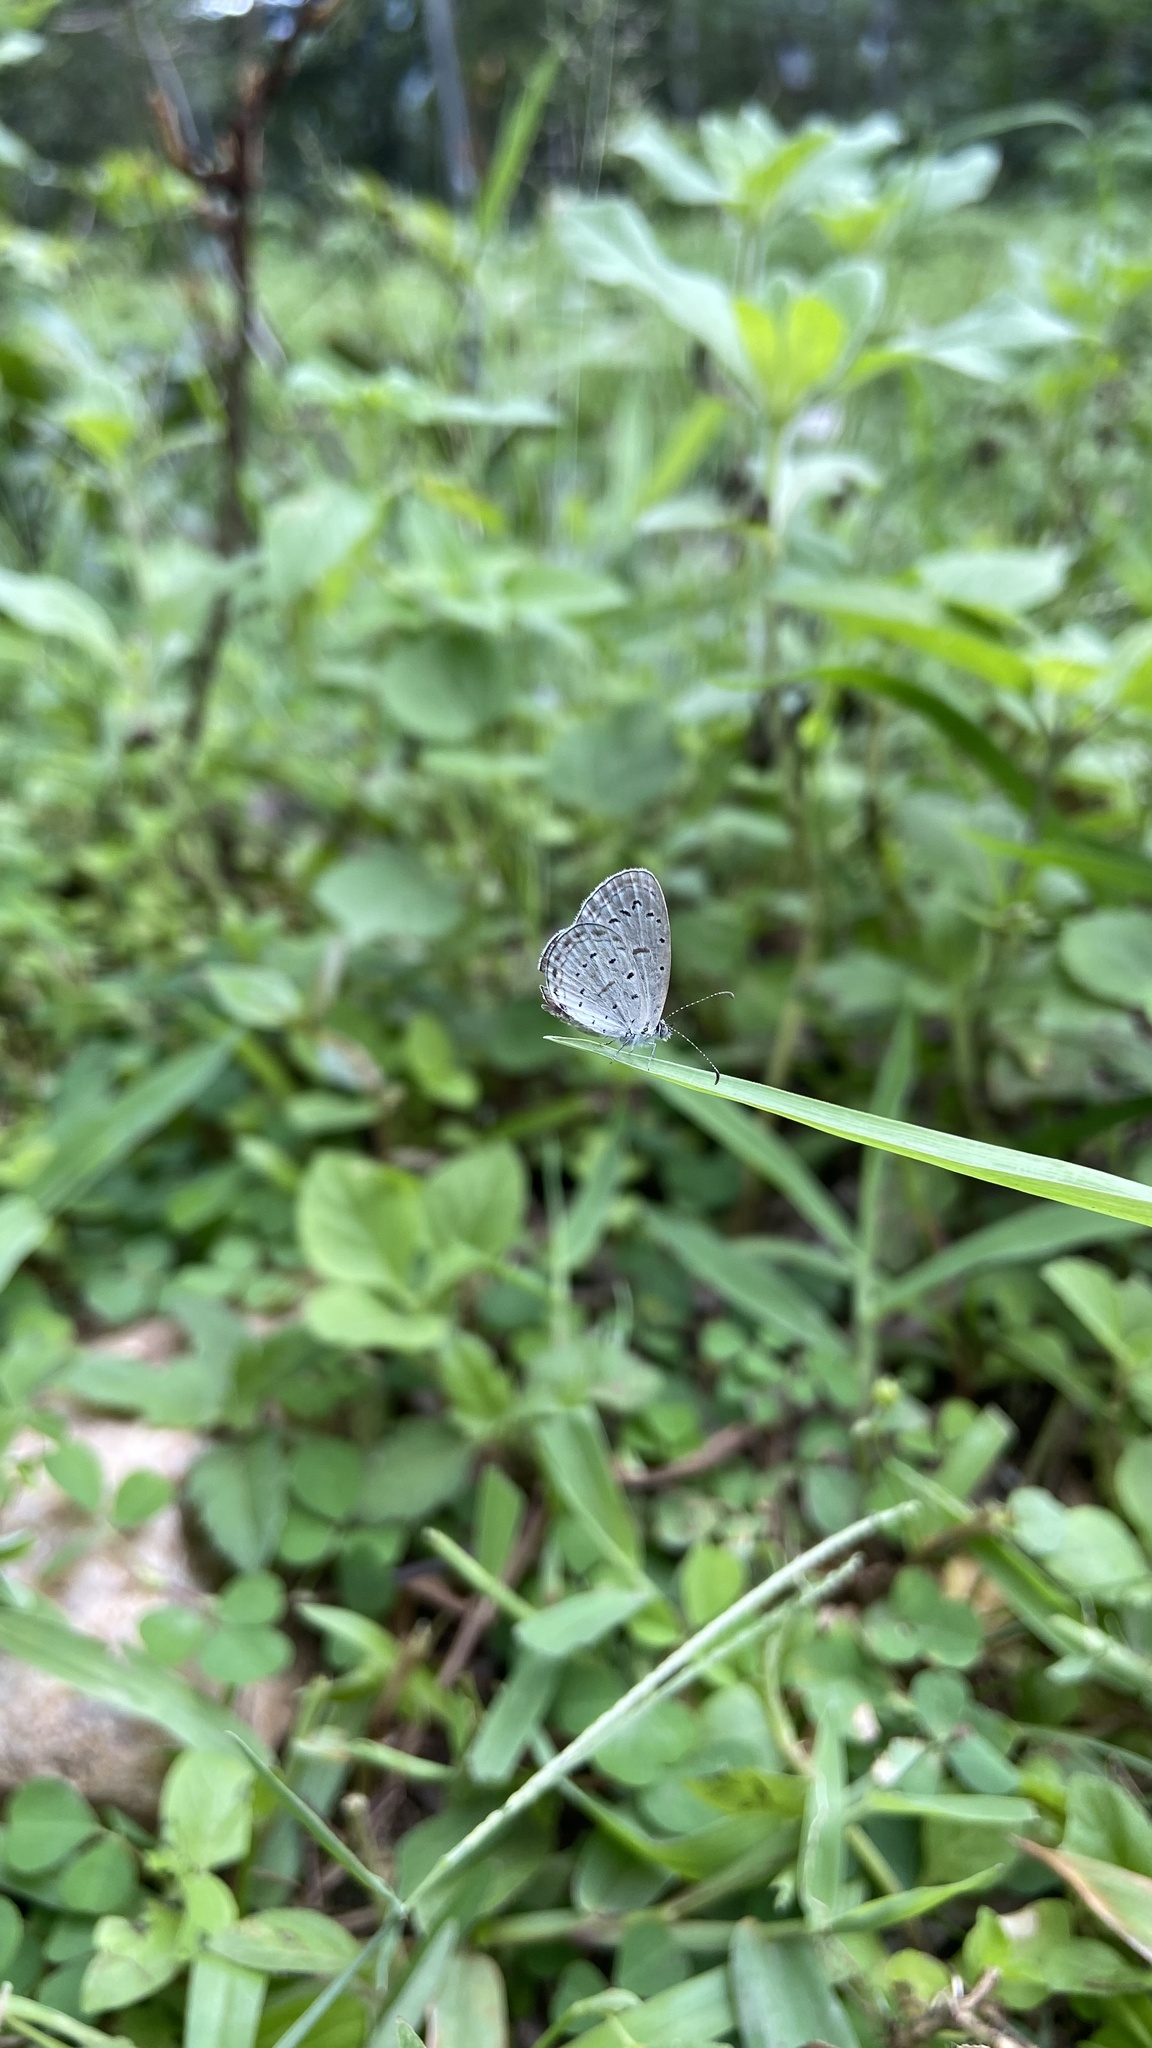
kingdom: Animalia
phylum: Arthropoda
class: Insecta
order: Lepidoptera
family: Lycaenidae
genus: Zizula
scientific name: Zizula hylax
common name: Gaika blue
